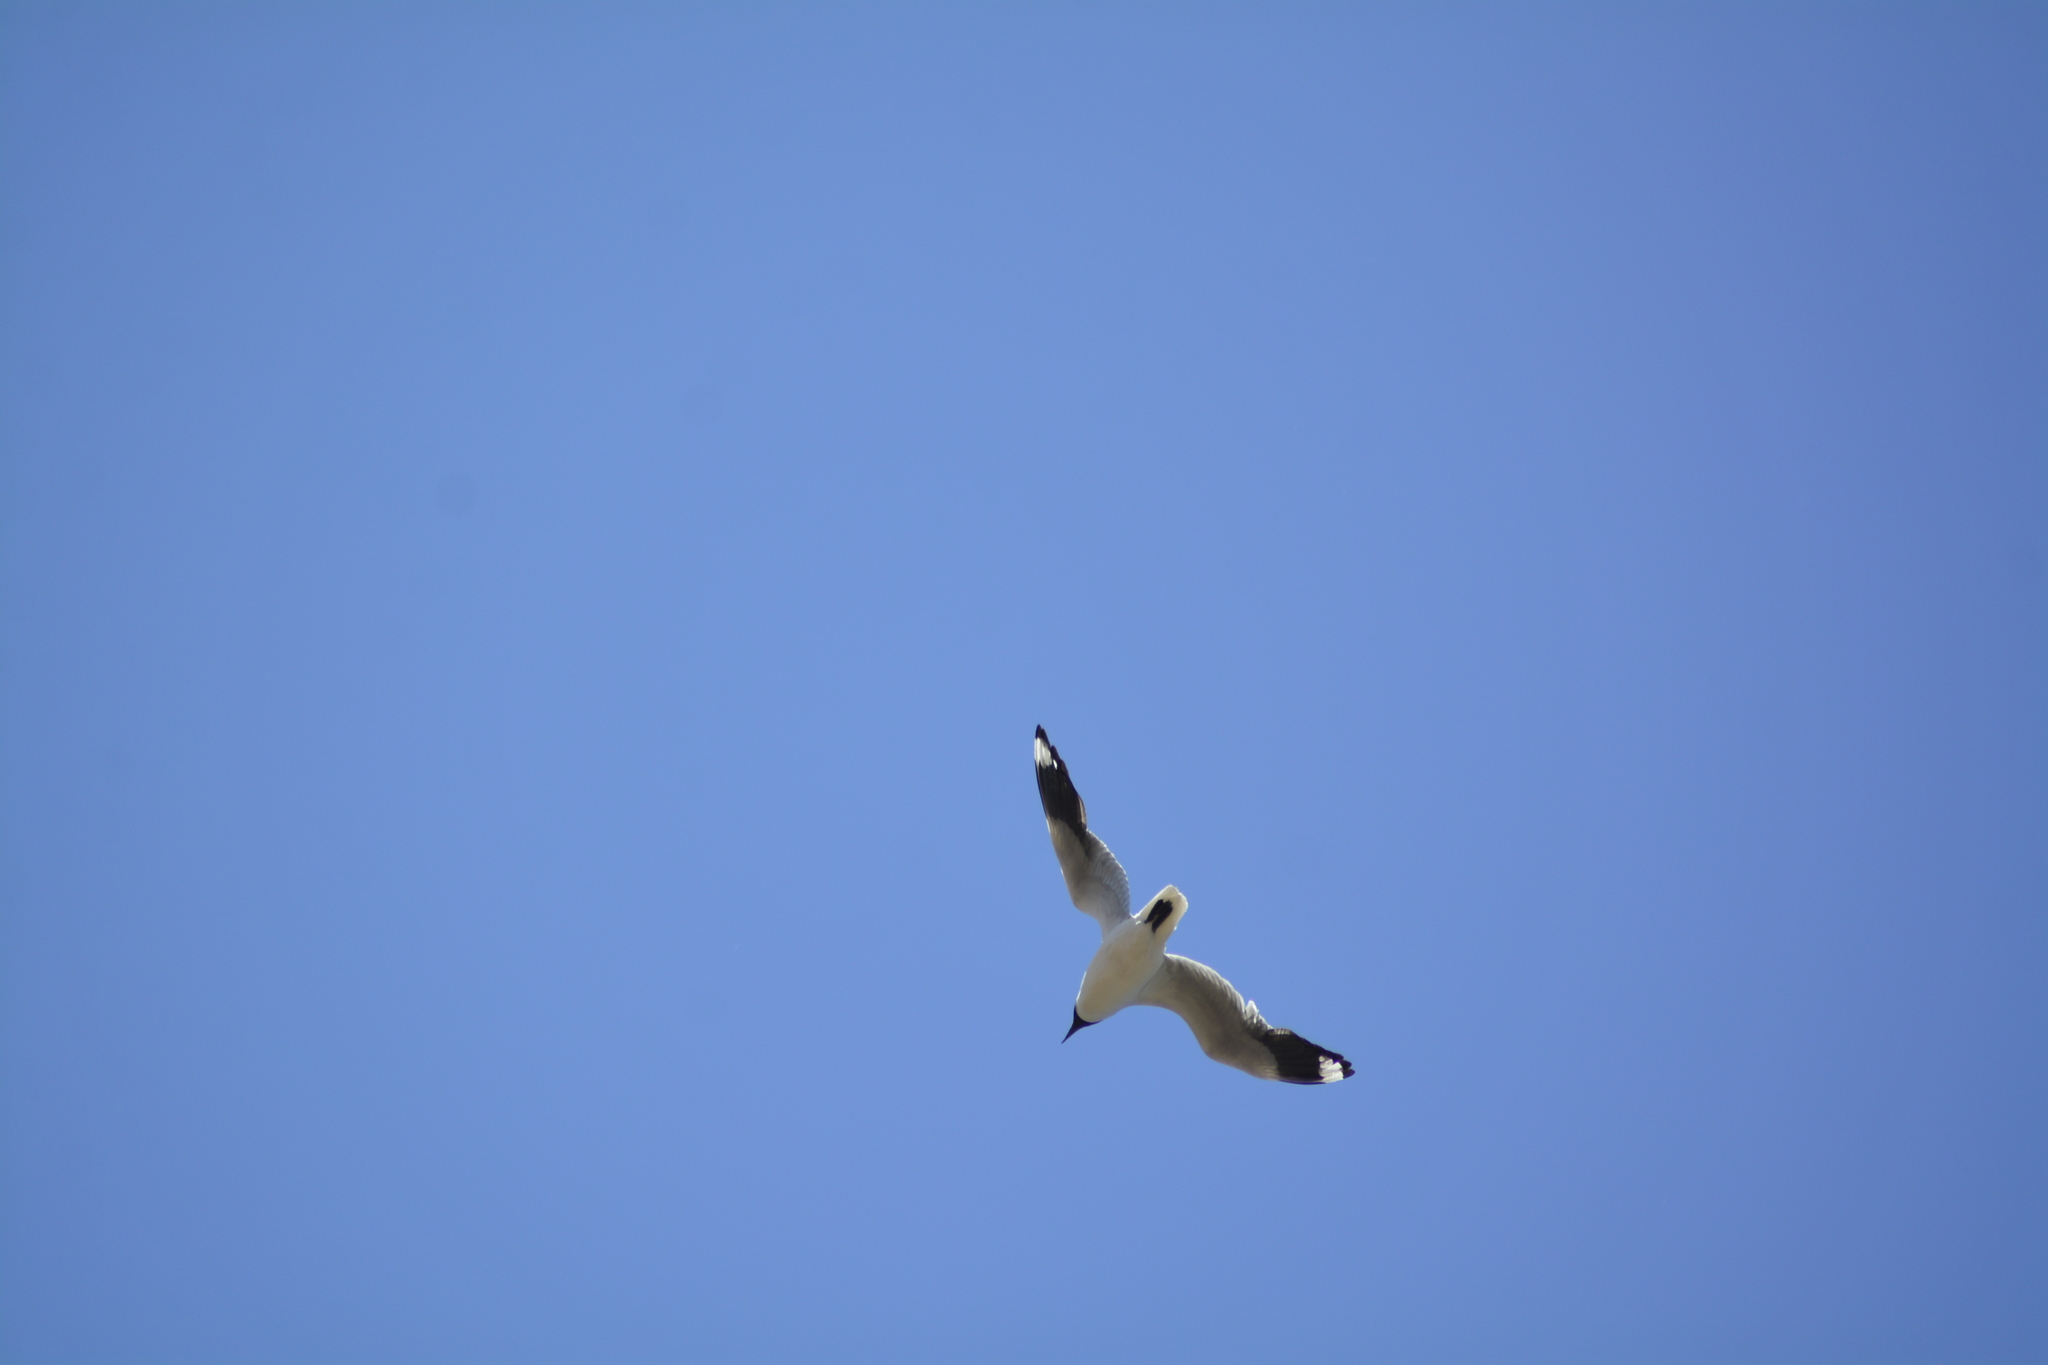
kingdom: Animalia
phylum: Chordata
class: Aves
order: Charadriiformes
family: Laridae
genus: Chroicocephalus
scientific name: Chroicocephalus maculipennis
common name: Brown-hooded gull
